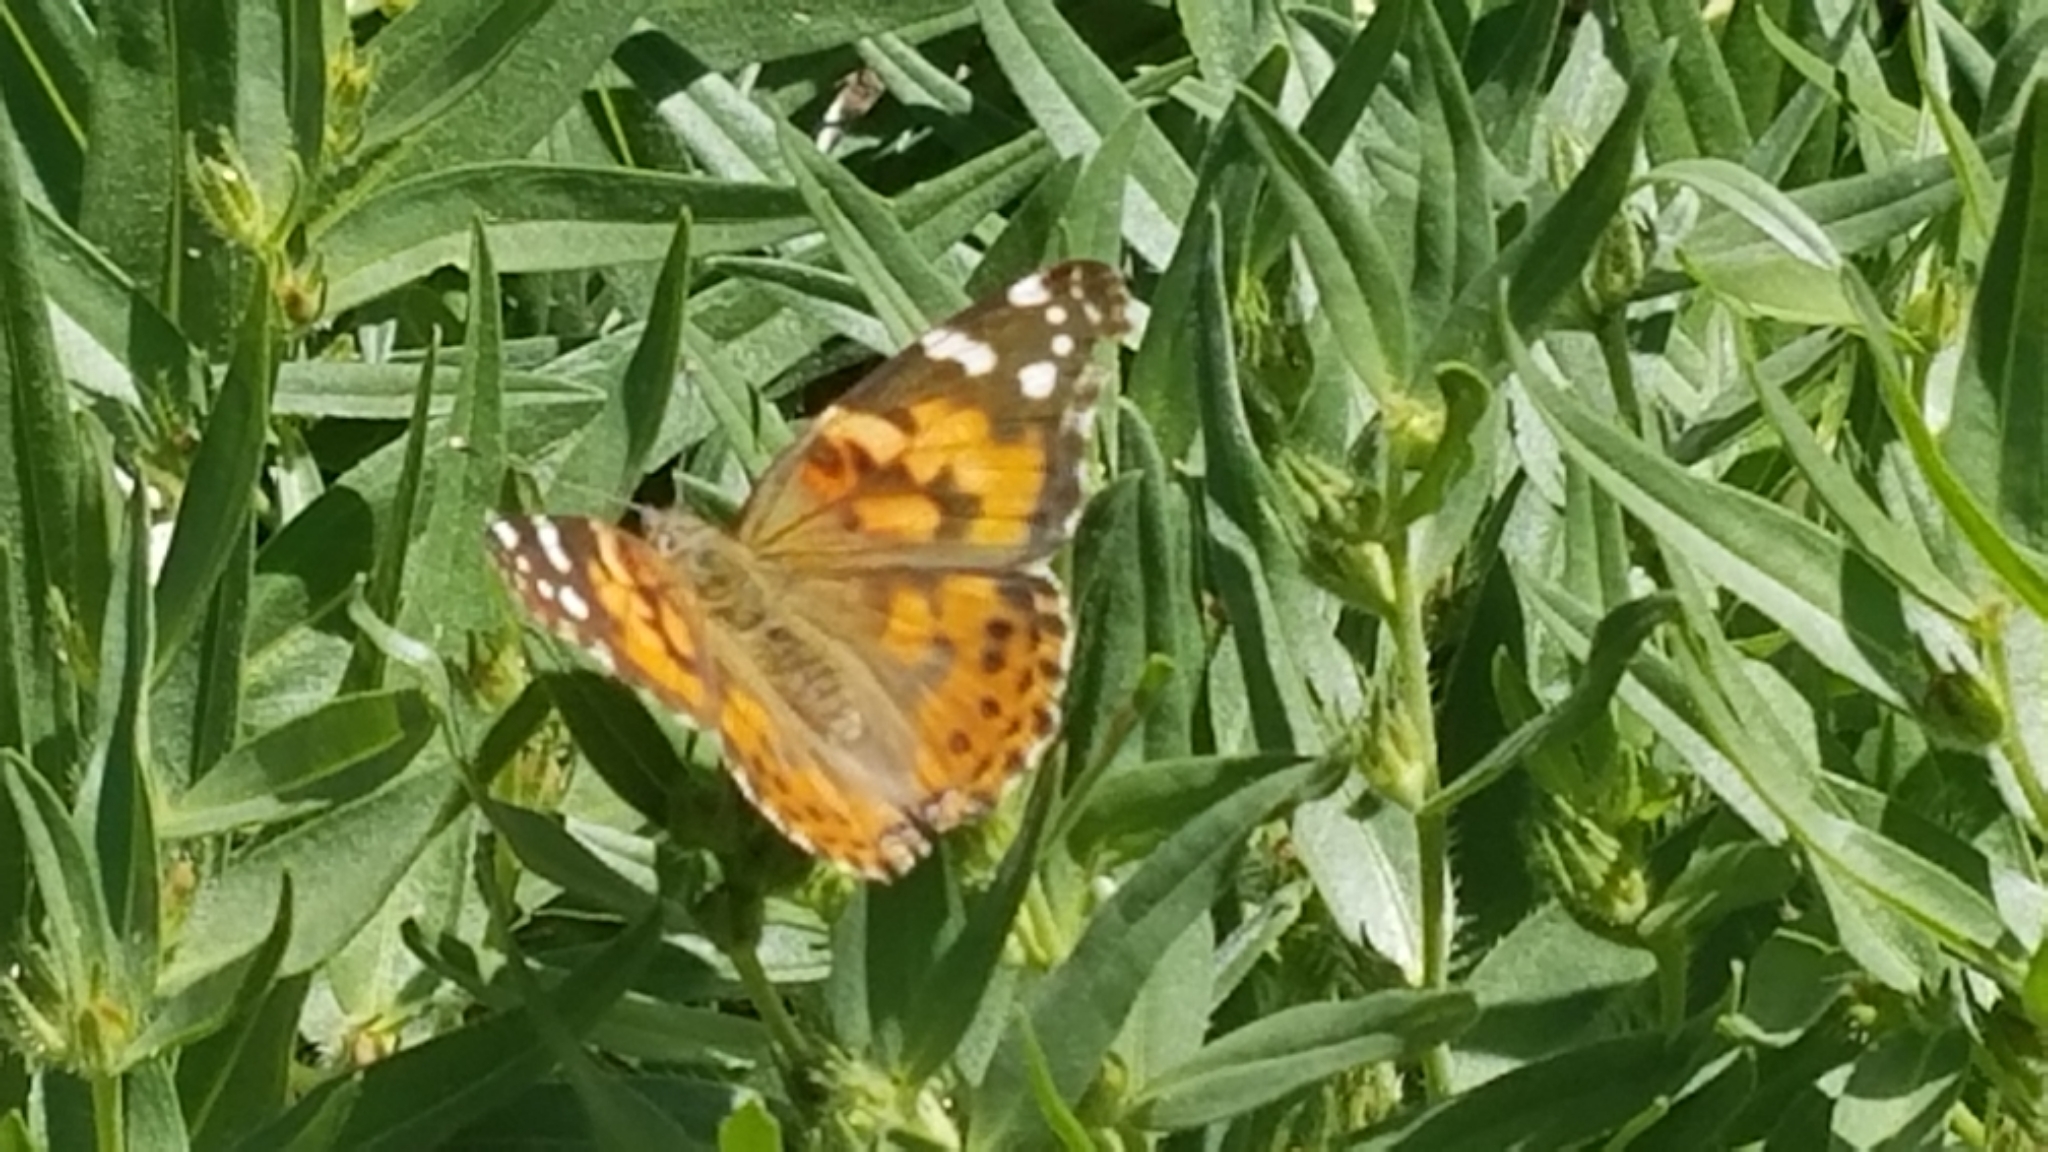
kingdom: Animalia
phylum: Arthropoda
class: Insecta
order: Lepidoptera
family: Nymphalidae
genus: Vanessa
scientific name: Vanessa cardui
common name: Painted lady
